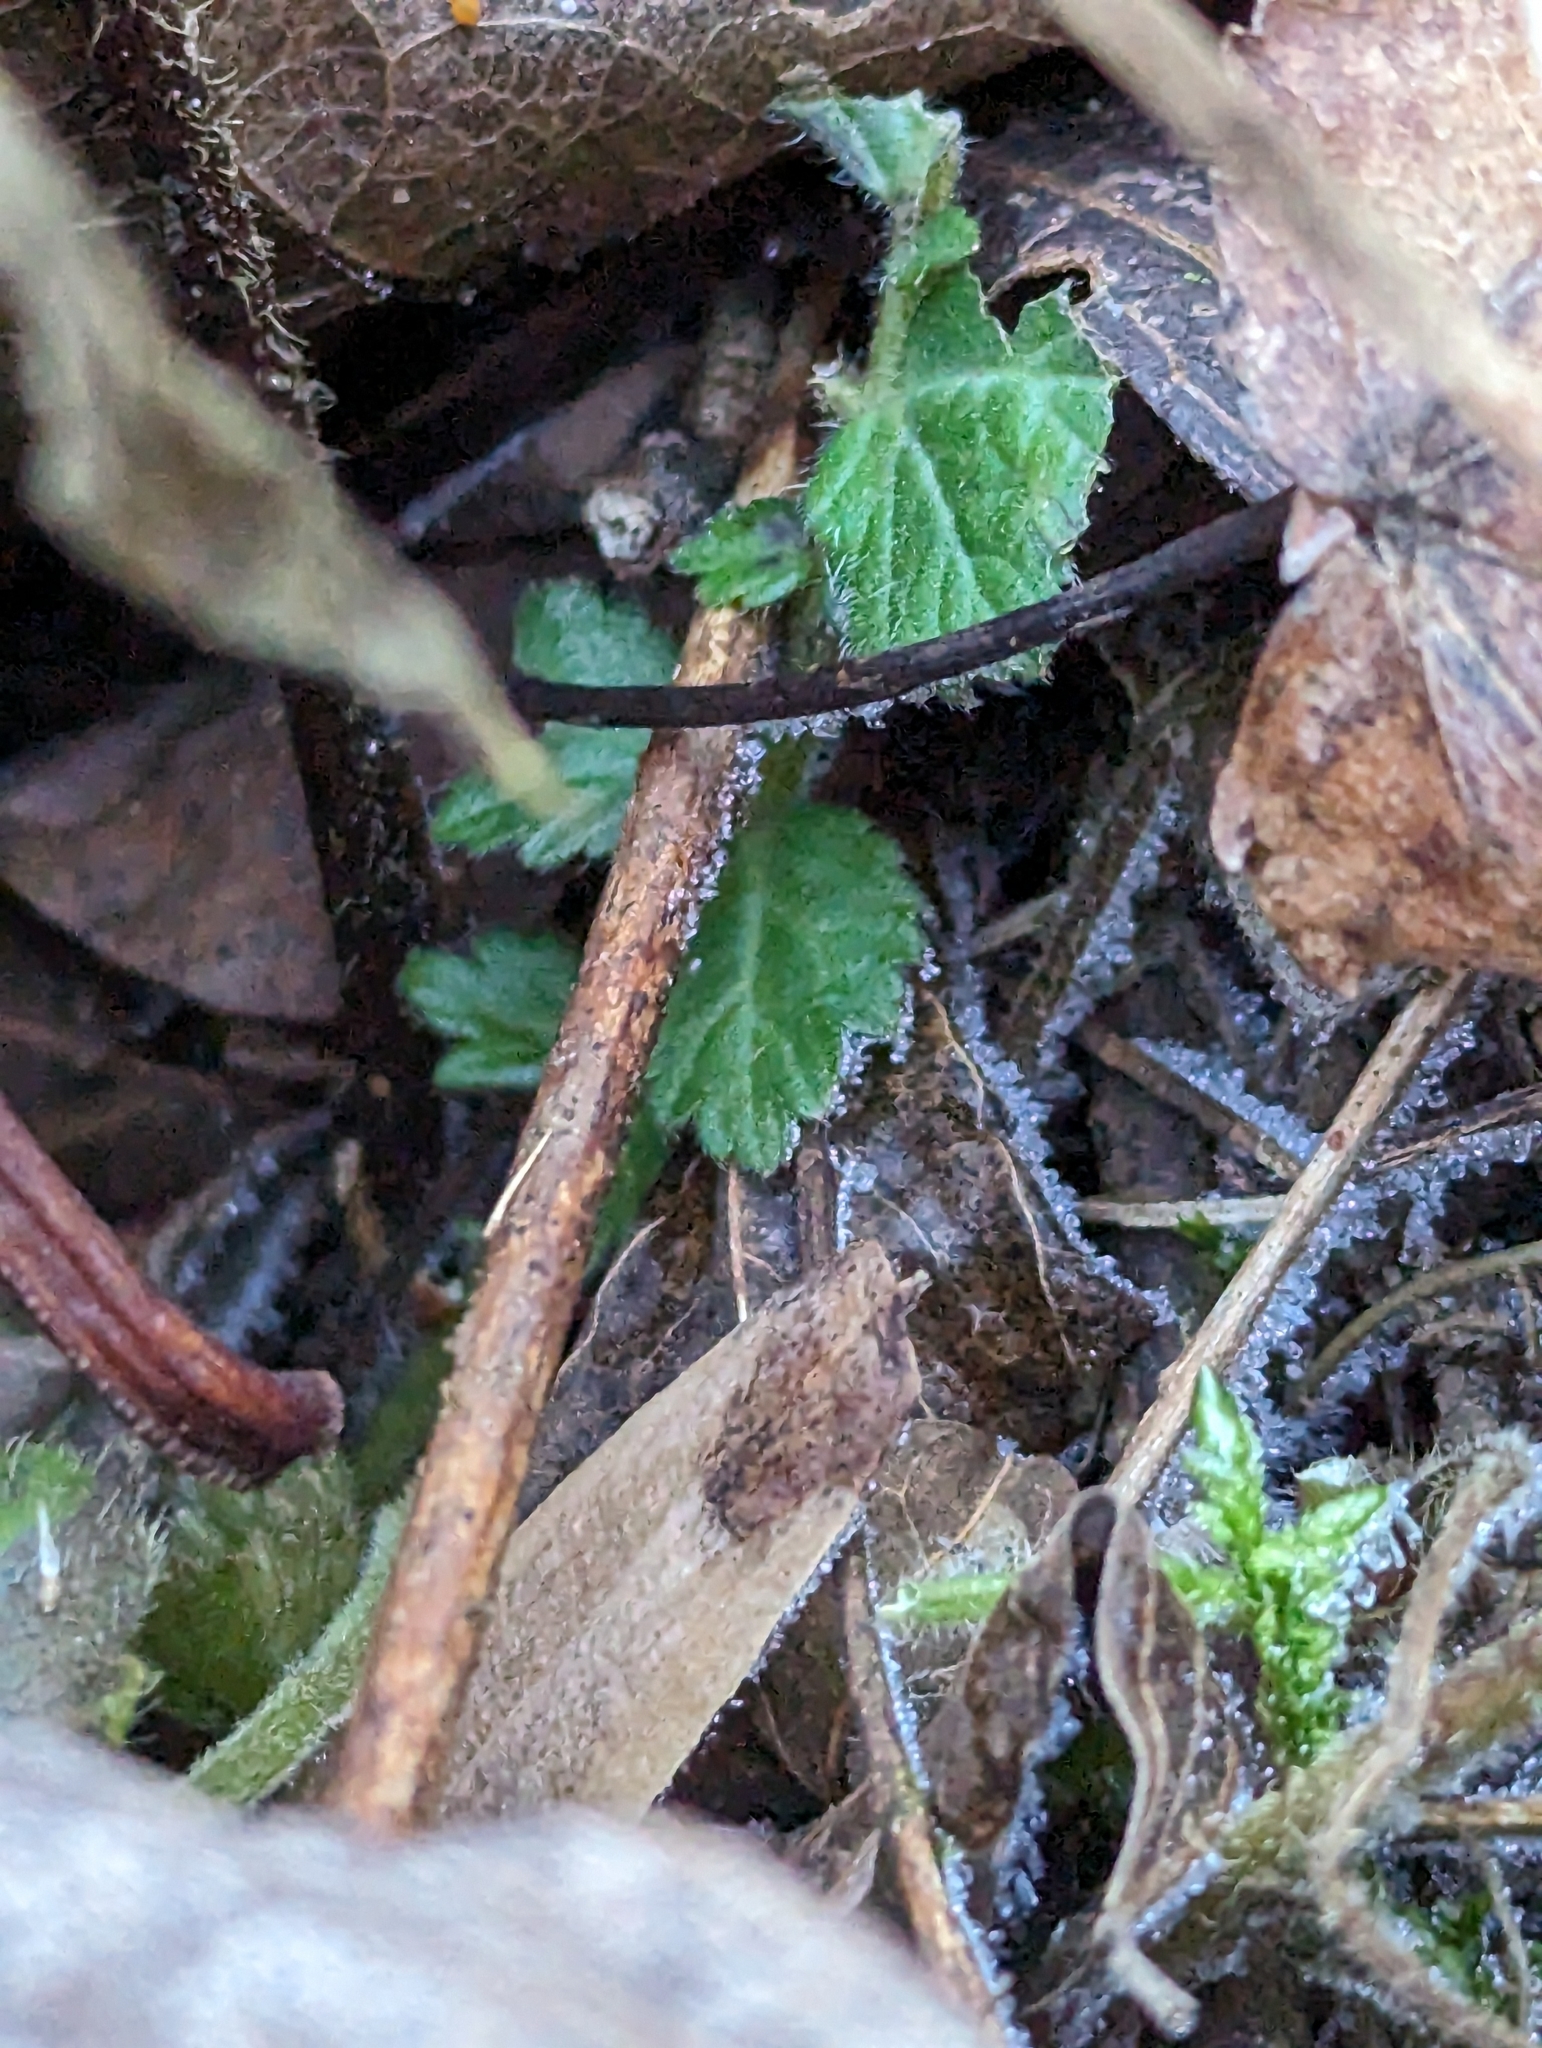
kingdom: Plantae
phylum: Tracheophyta
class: Magnoliopsida
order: Rosales
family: Rosaceae
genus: Geum
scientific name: Geum canadense
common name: White avens
